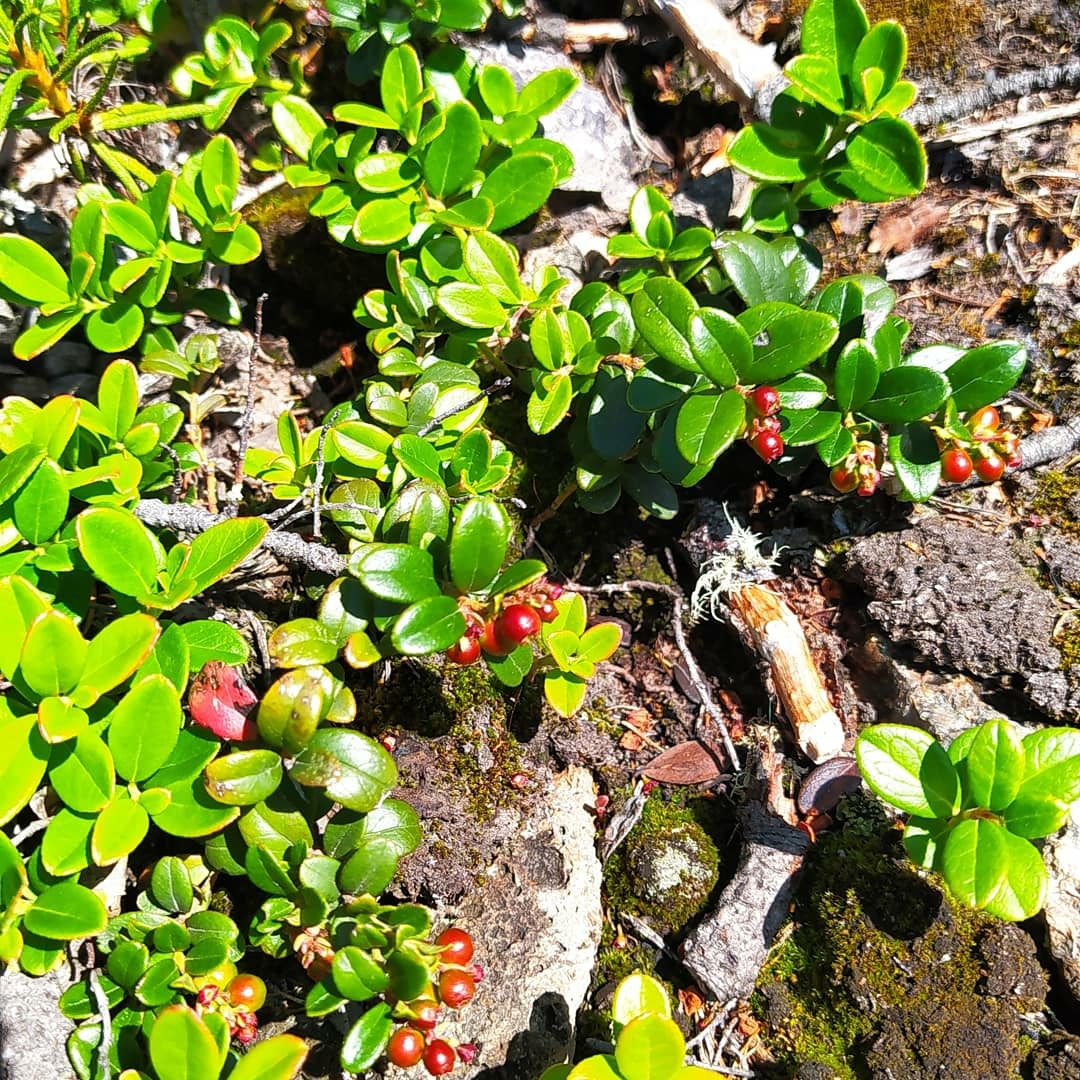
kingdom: Plantae
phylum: Tracheophyta
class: Magnoliopsida
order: Ericales
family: Ericaceae
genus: Vaccinium
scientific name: Vaccinium vitis-idaea
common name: Cowberry
